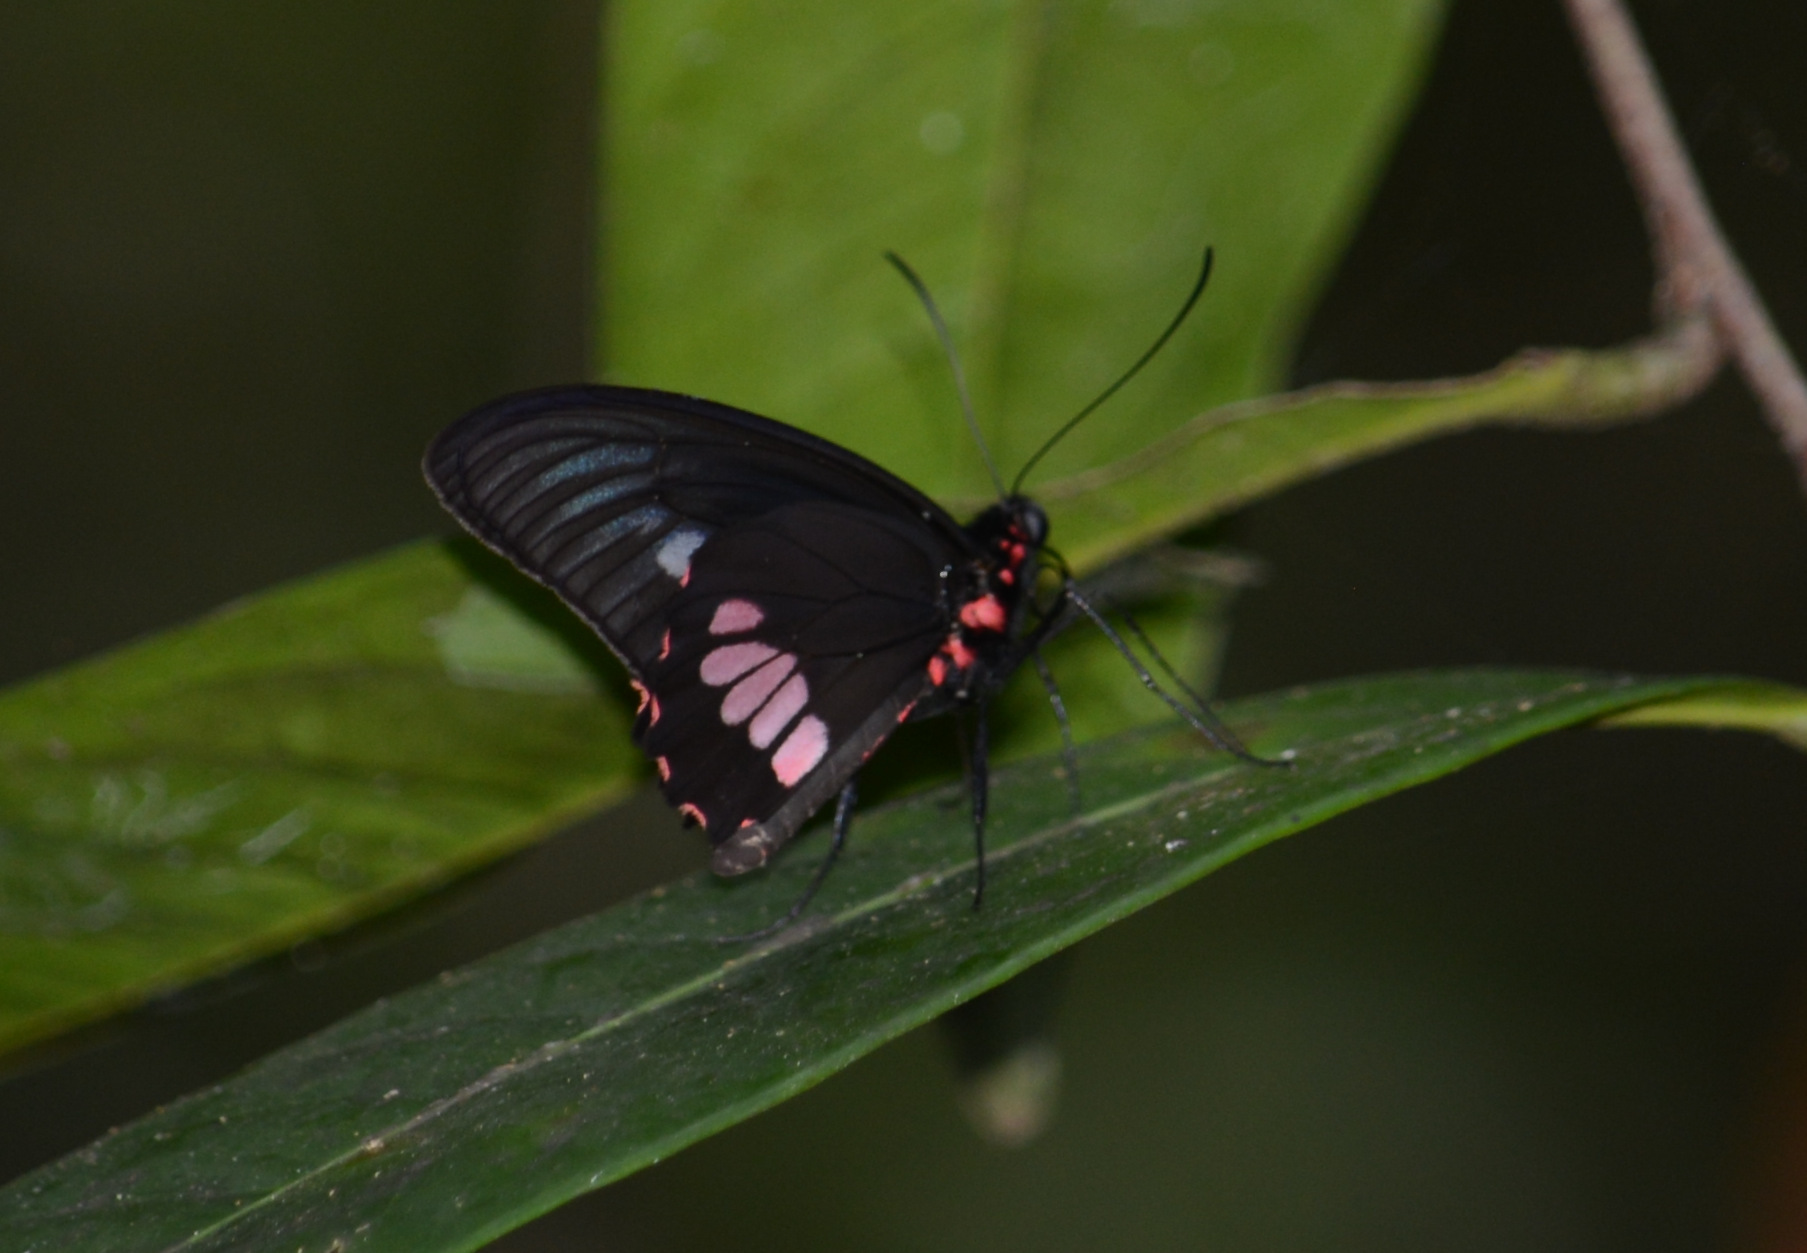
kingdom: Animalia
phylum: Arthropoda
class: Insecta
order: Lepidoptera
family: Papilionidae
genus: Parides
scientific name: Parides zacynthus
